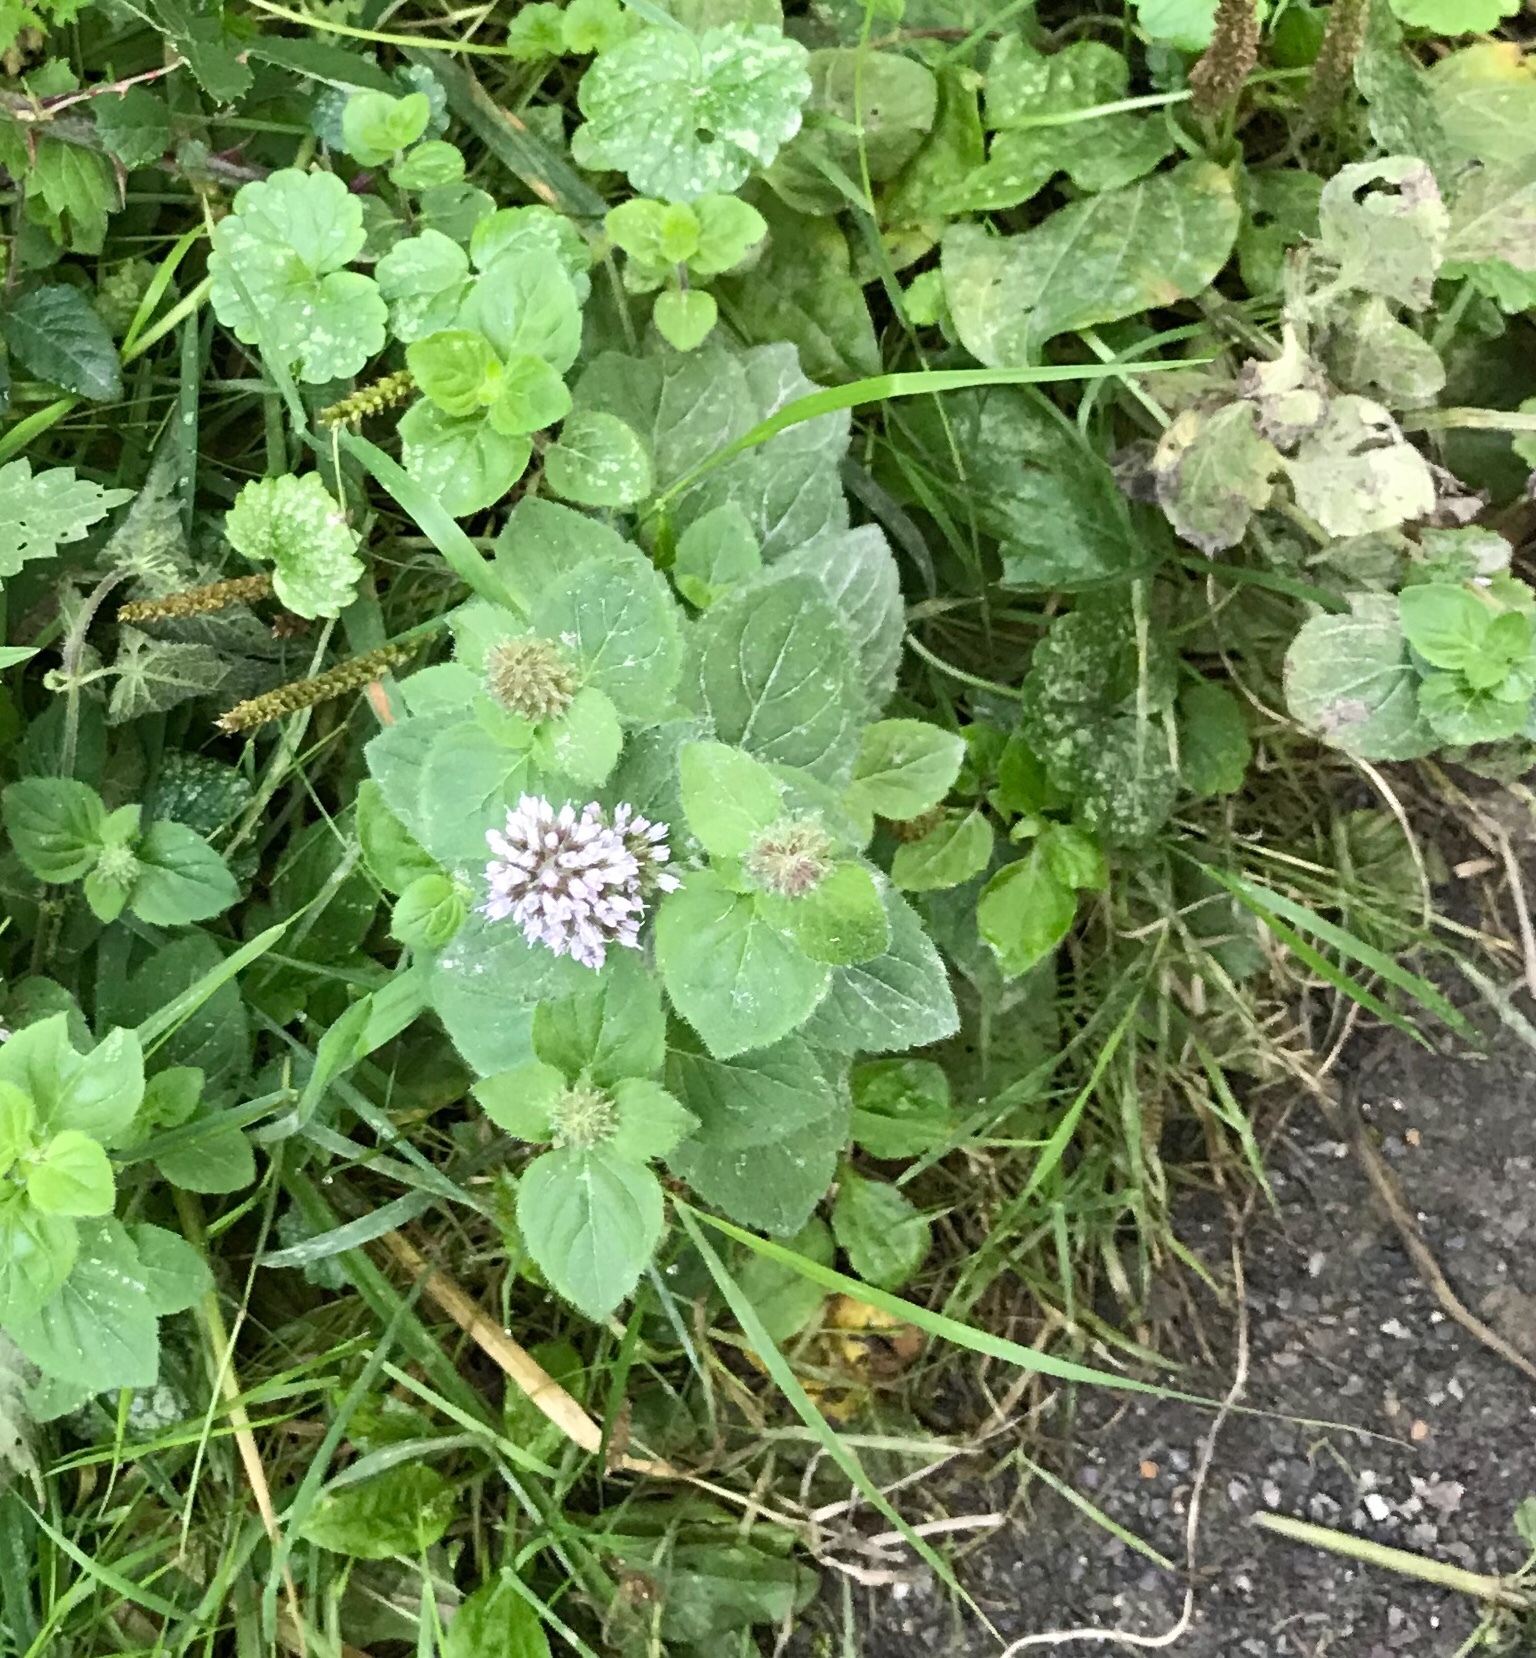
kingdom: Plantae
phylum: Tracheophyta
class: Magnoliopsida
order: Lamiales
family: Lamiaceae
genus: Mentha
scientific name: Mentha aquatica
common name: Water mint
